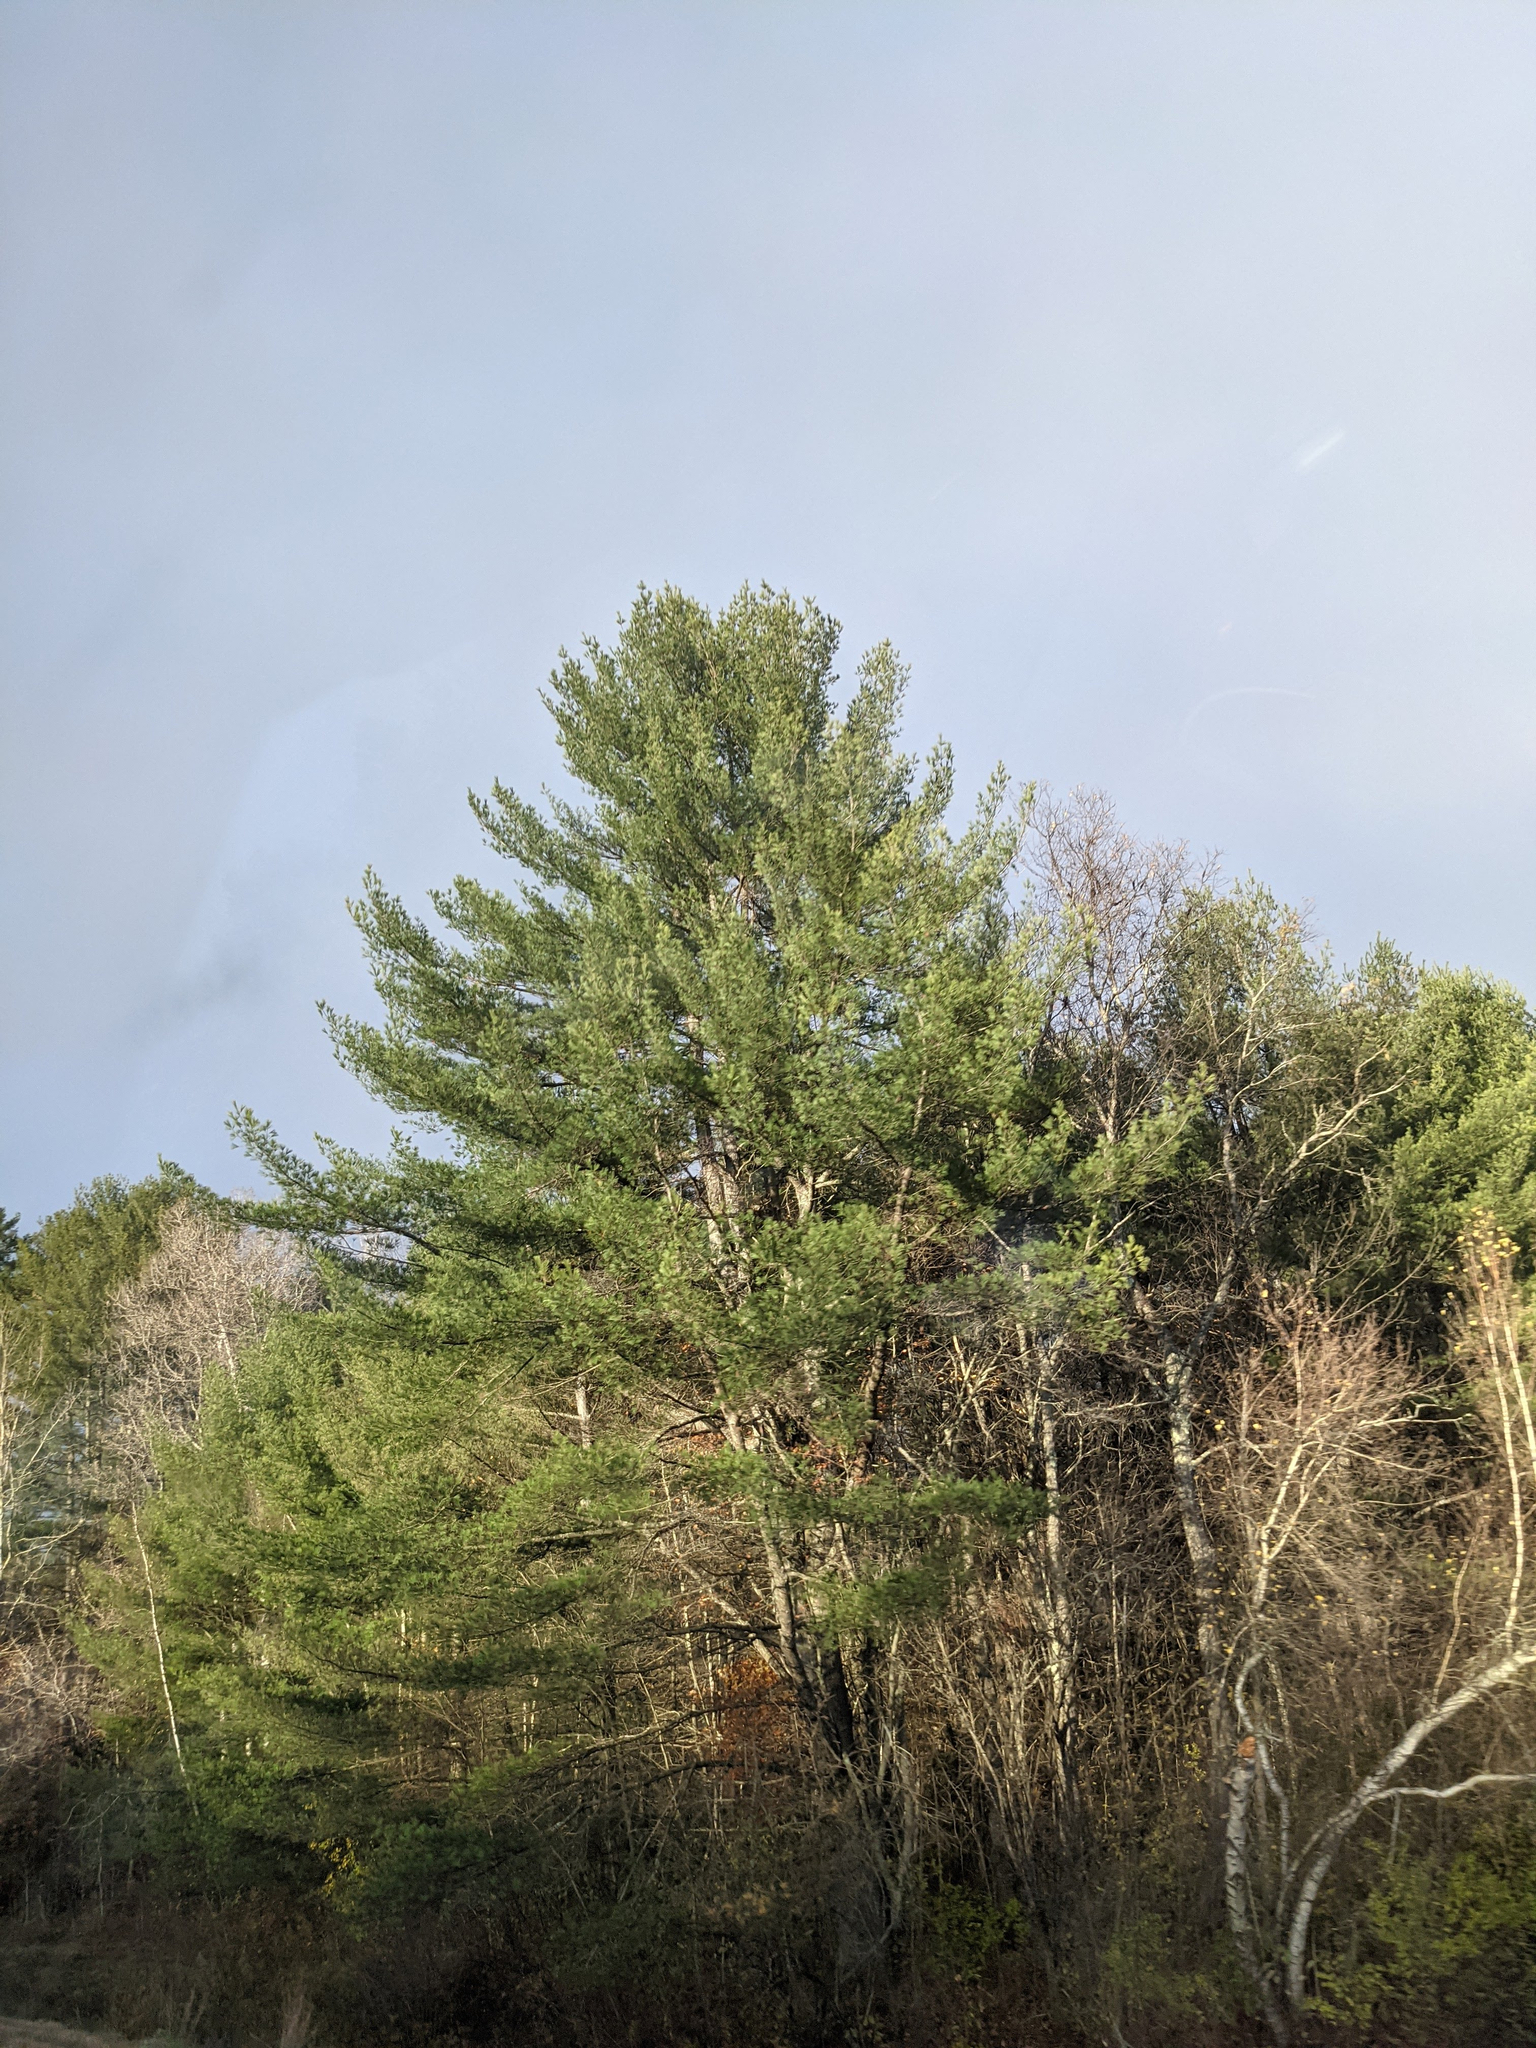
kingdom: Plantae
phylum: Tracheophyta
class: Pinopsida
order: Pinales
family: Pinaceae
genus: Pinus
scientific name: Pinus strobus
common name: Weymouth pine
